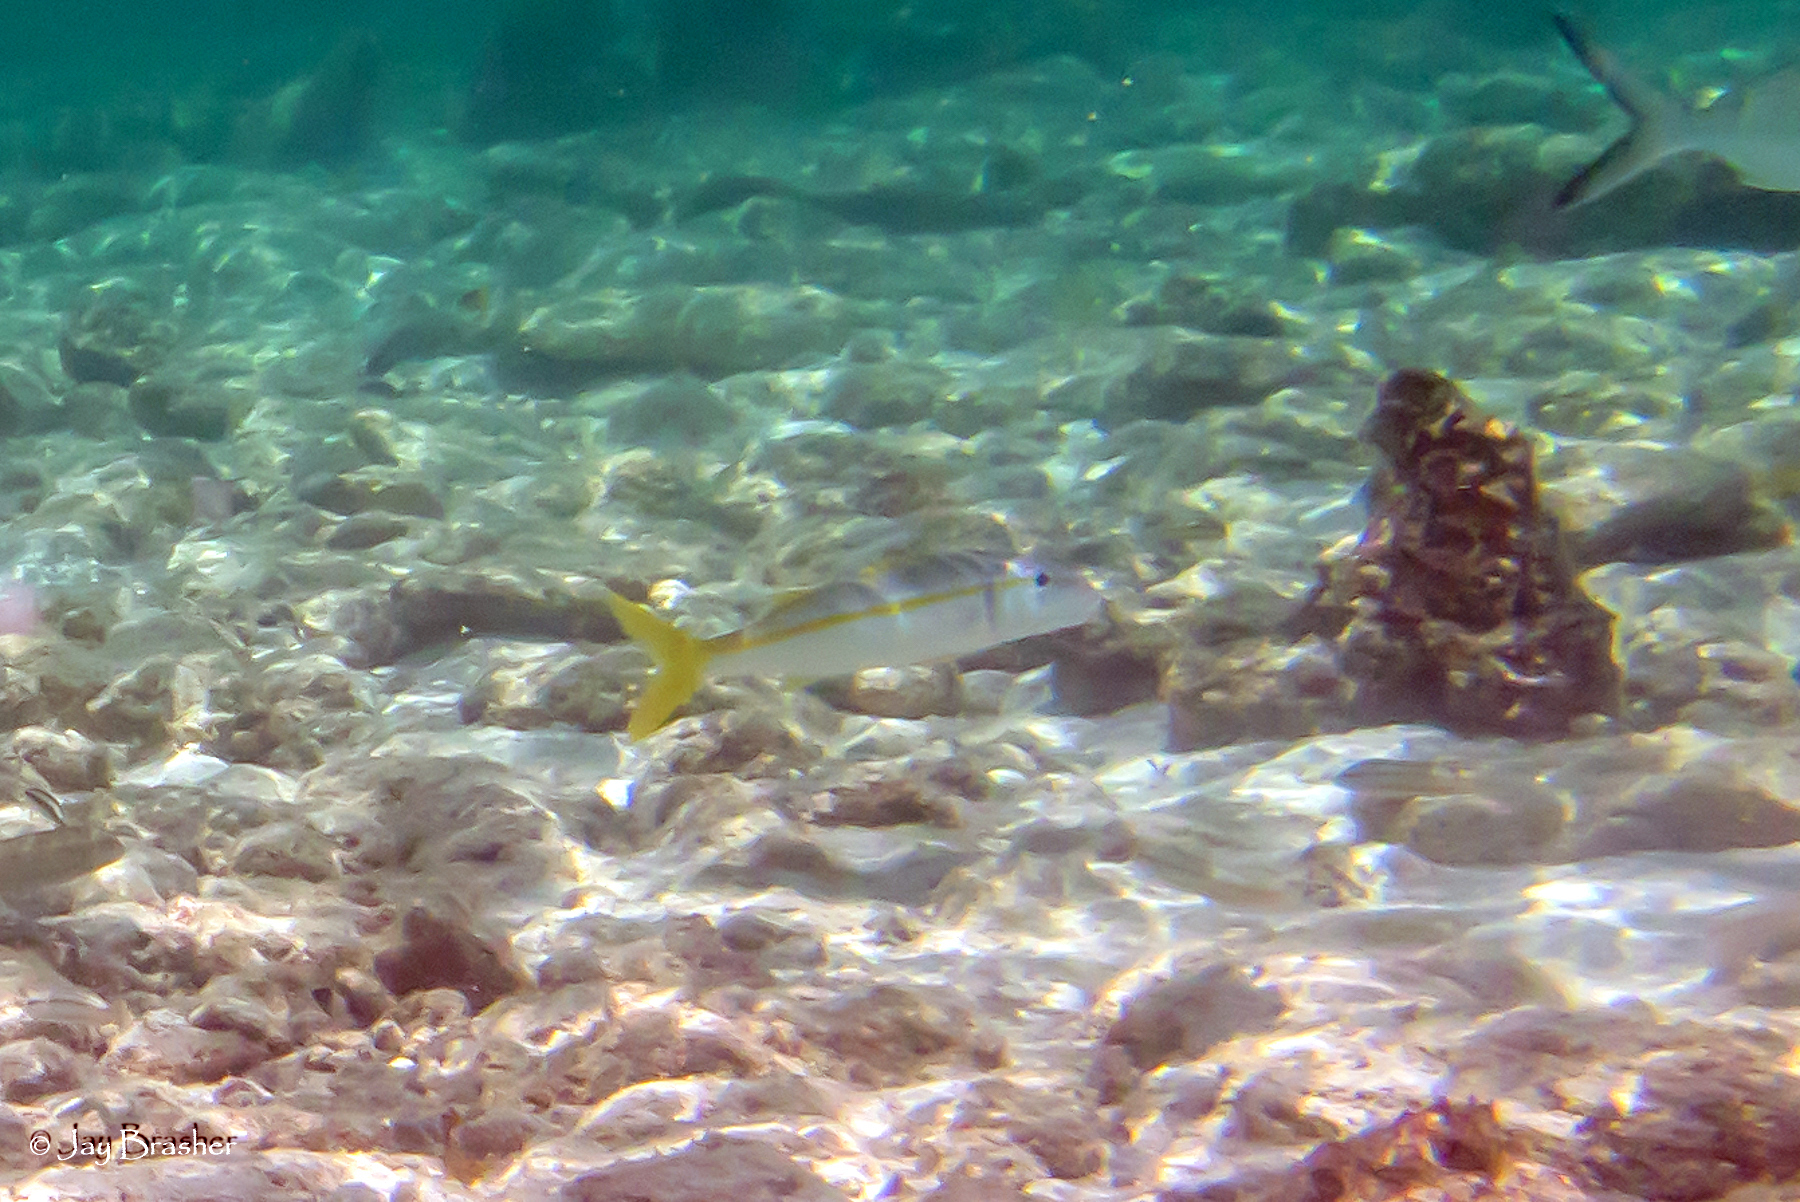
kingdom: Animalia
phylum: Chordata
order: Perciformes
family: Mullidae
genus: Mulloidichthys
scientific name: Mulloidichthys martinicus
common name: Yellow goatfish
